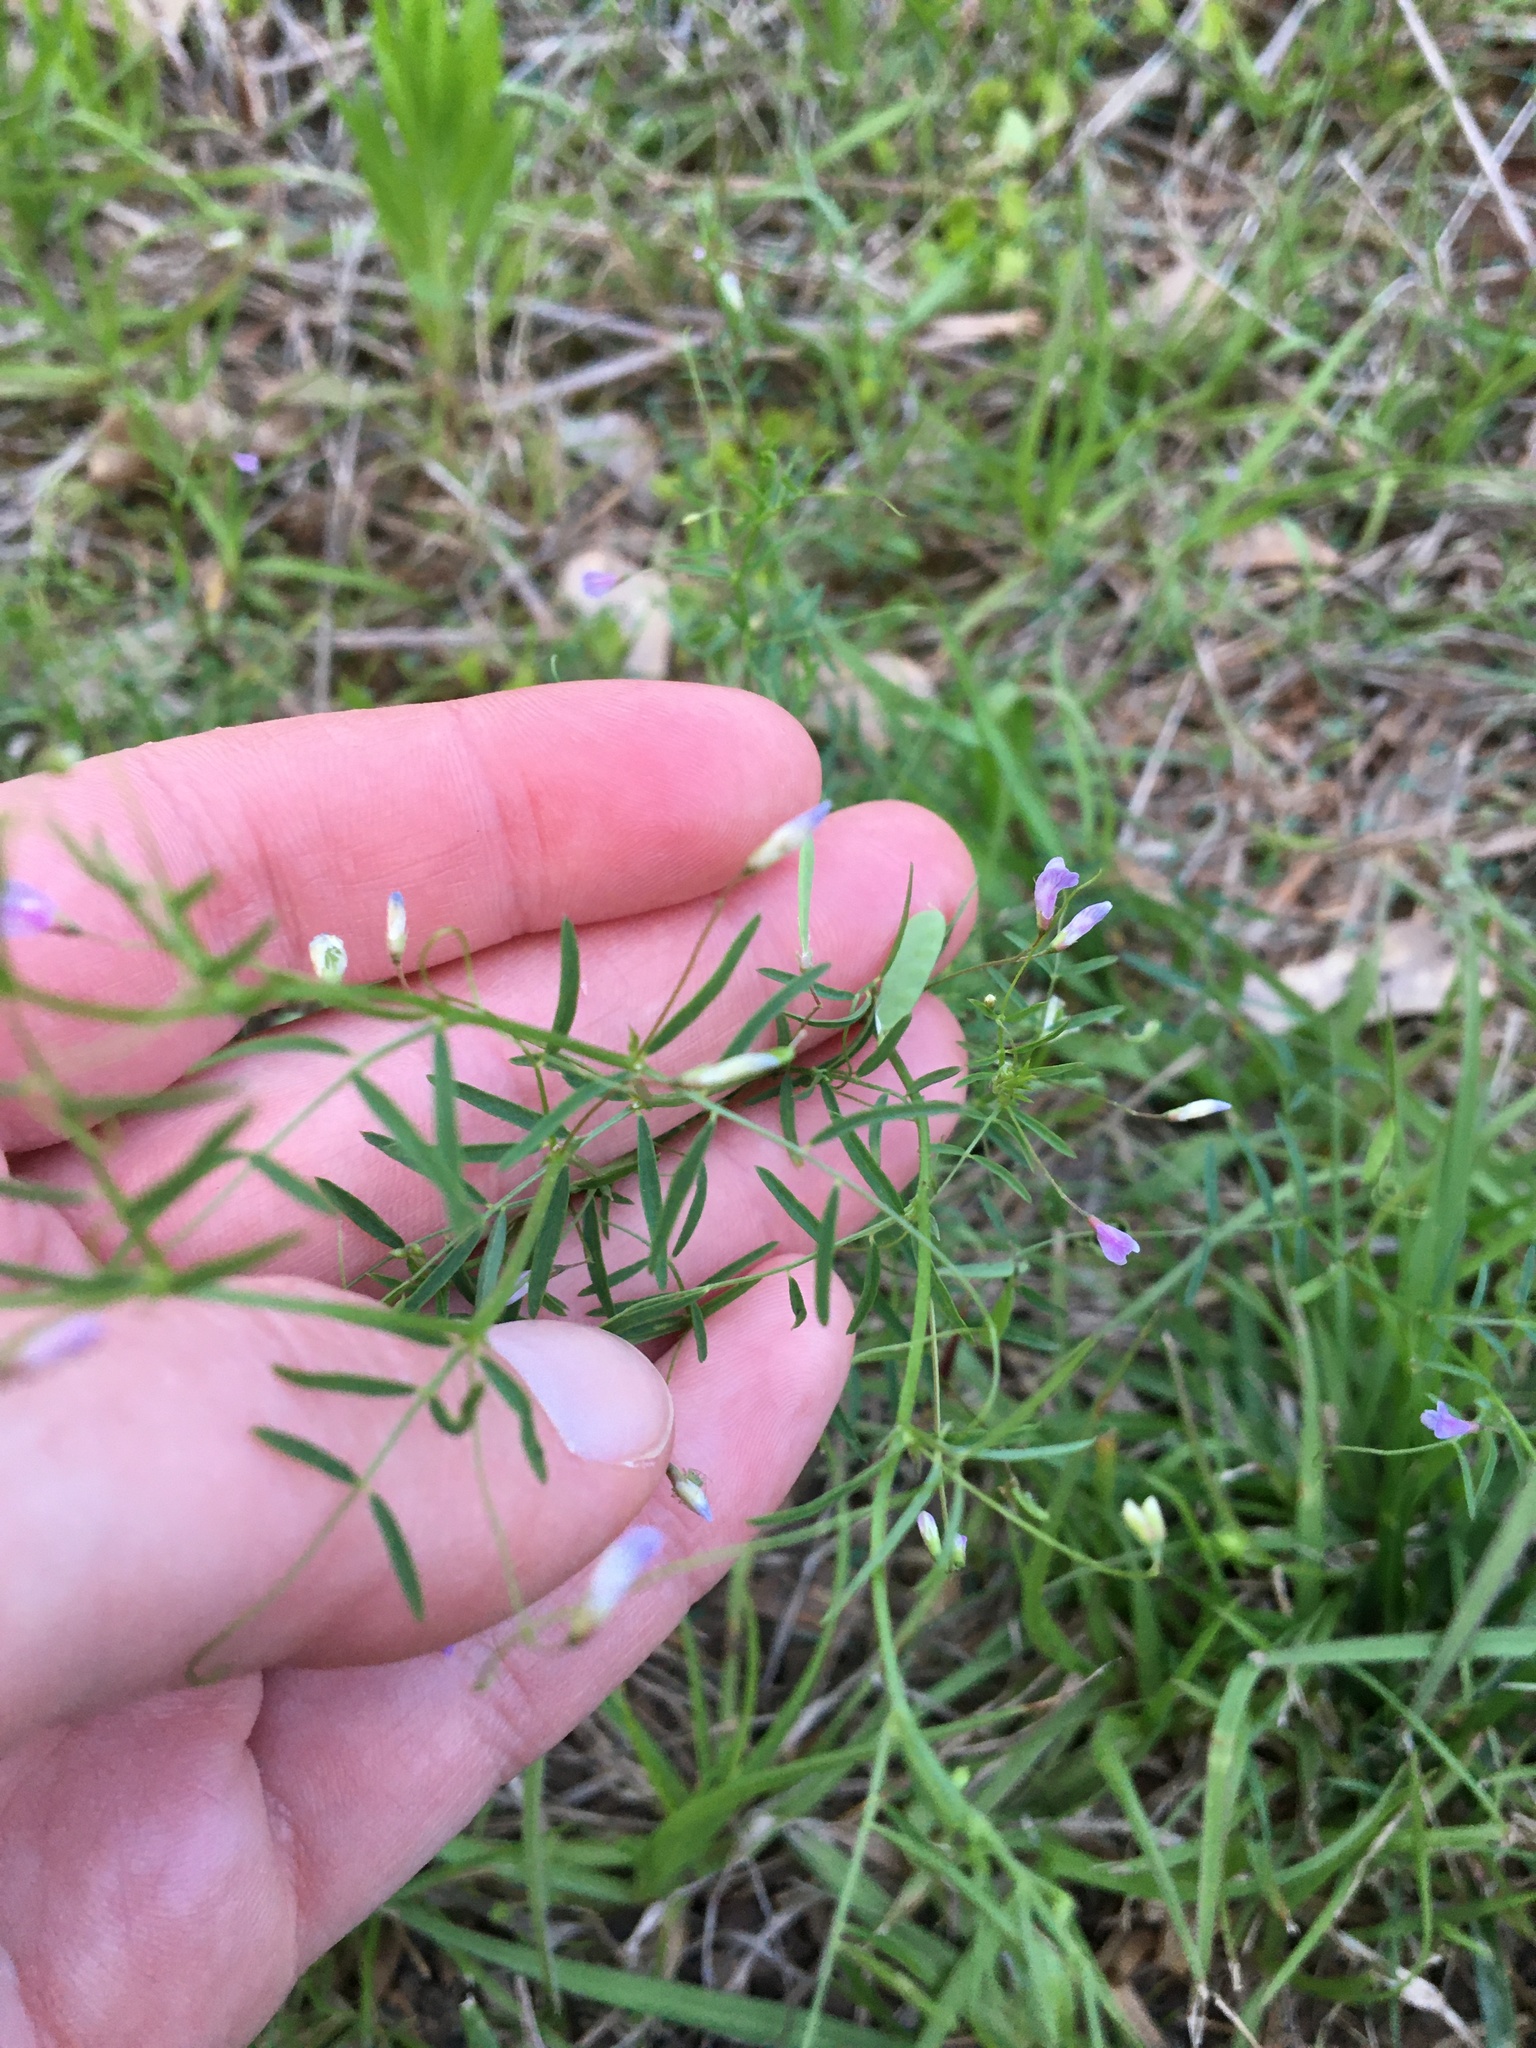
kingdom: Plantae
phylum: Tracheophyta
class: Magnoliopsida
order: Fabales
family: Fabaceae
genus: Vicia
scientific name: Vicia tetrasperma
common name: Smooth tare
